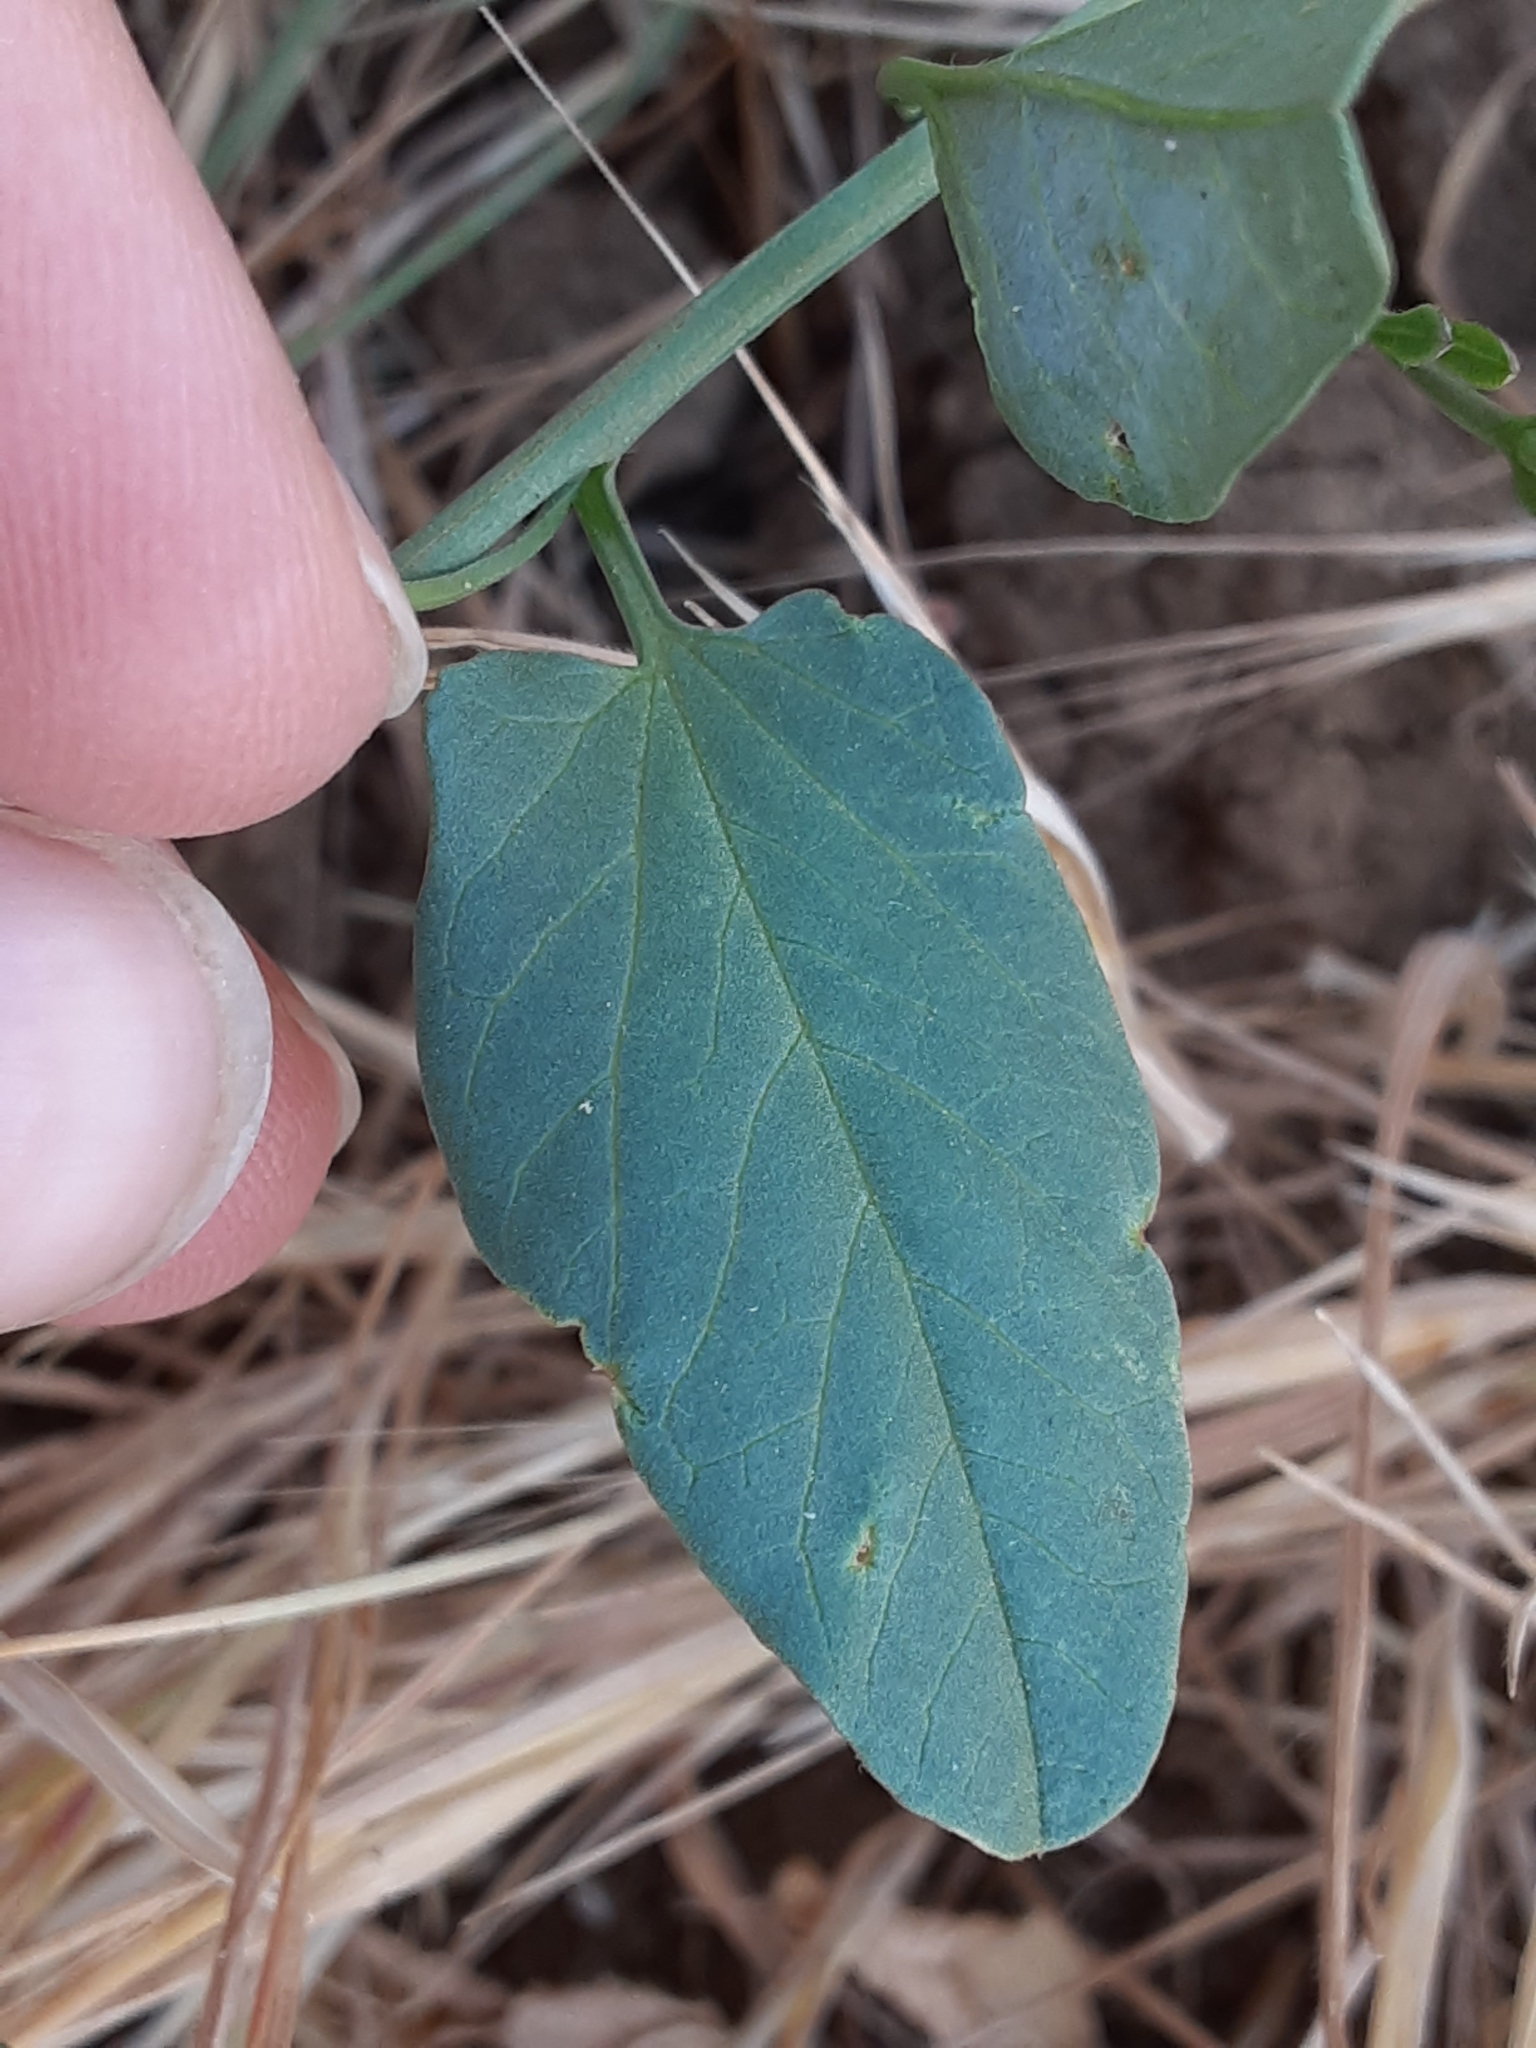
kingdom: Plantae
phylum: Tracheophyta
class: Magnoliopsida
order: Solanales
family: Convolvulaceae
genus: Convolvulus
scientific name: Convolvulus arvensis
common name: Field bindweed
